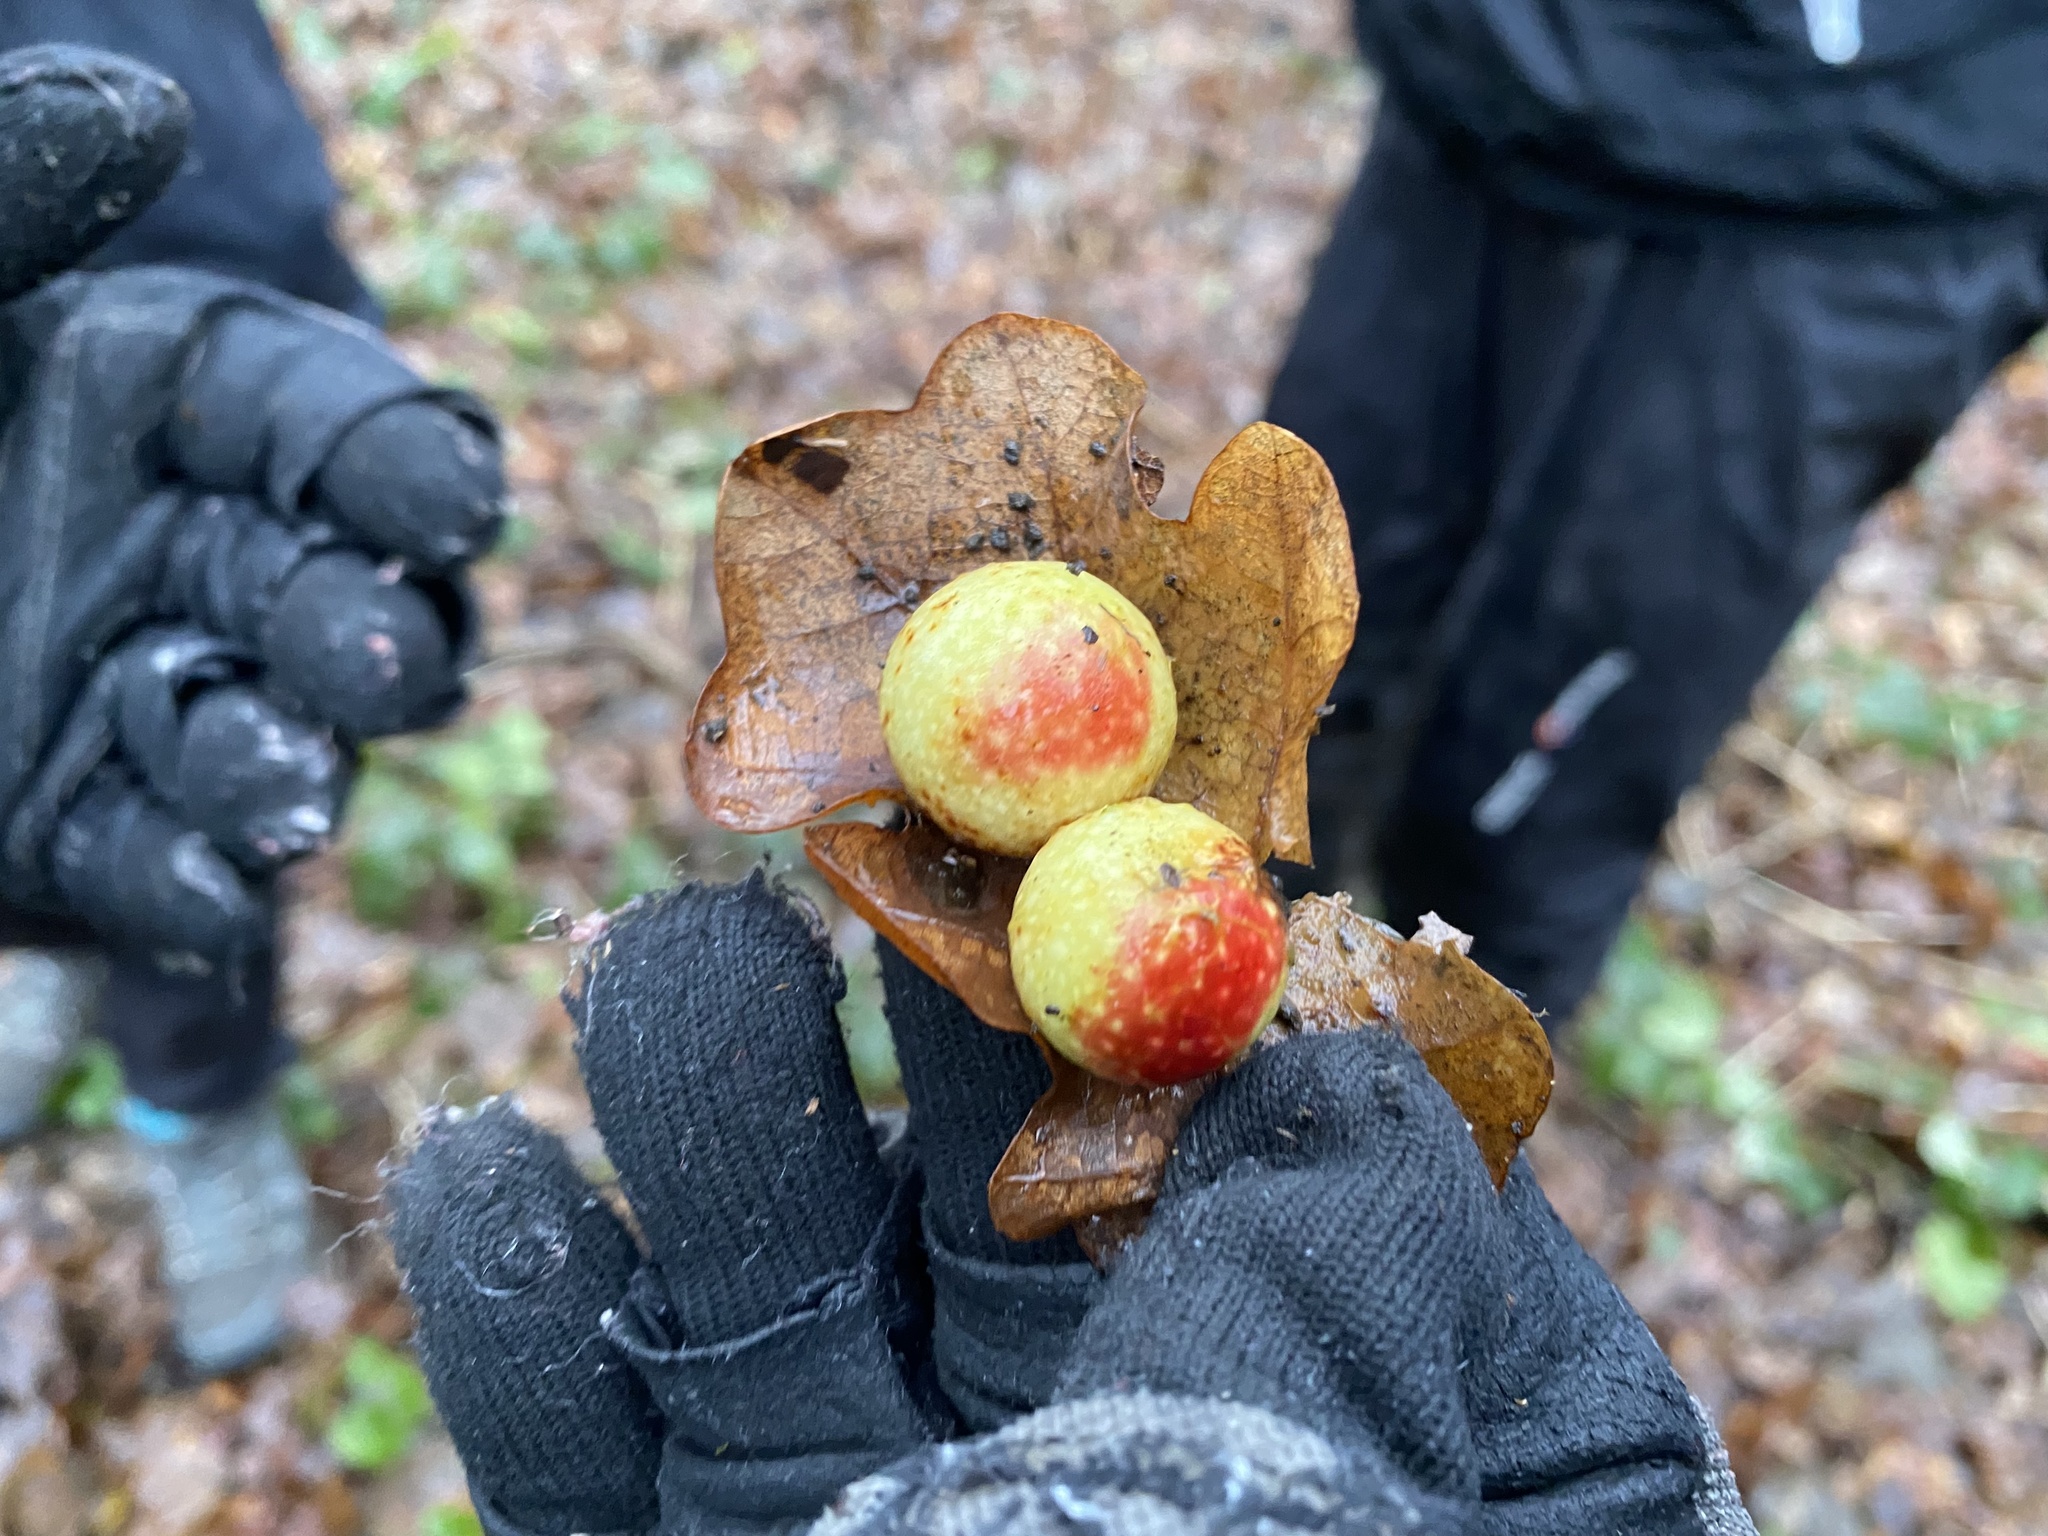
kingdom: Animalia
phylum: Arthropoda
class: Insecta
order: Hymenoptera
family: Cynipidae
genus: Cynips
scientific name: Cynips quercusfolii
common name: Cherry gall
